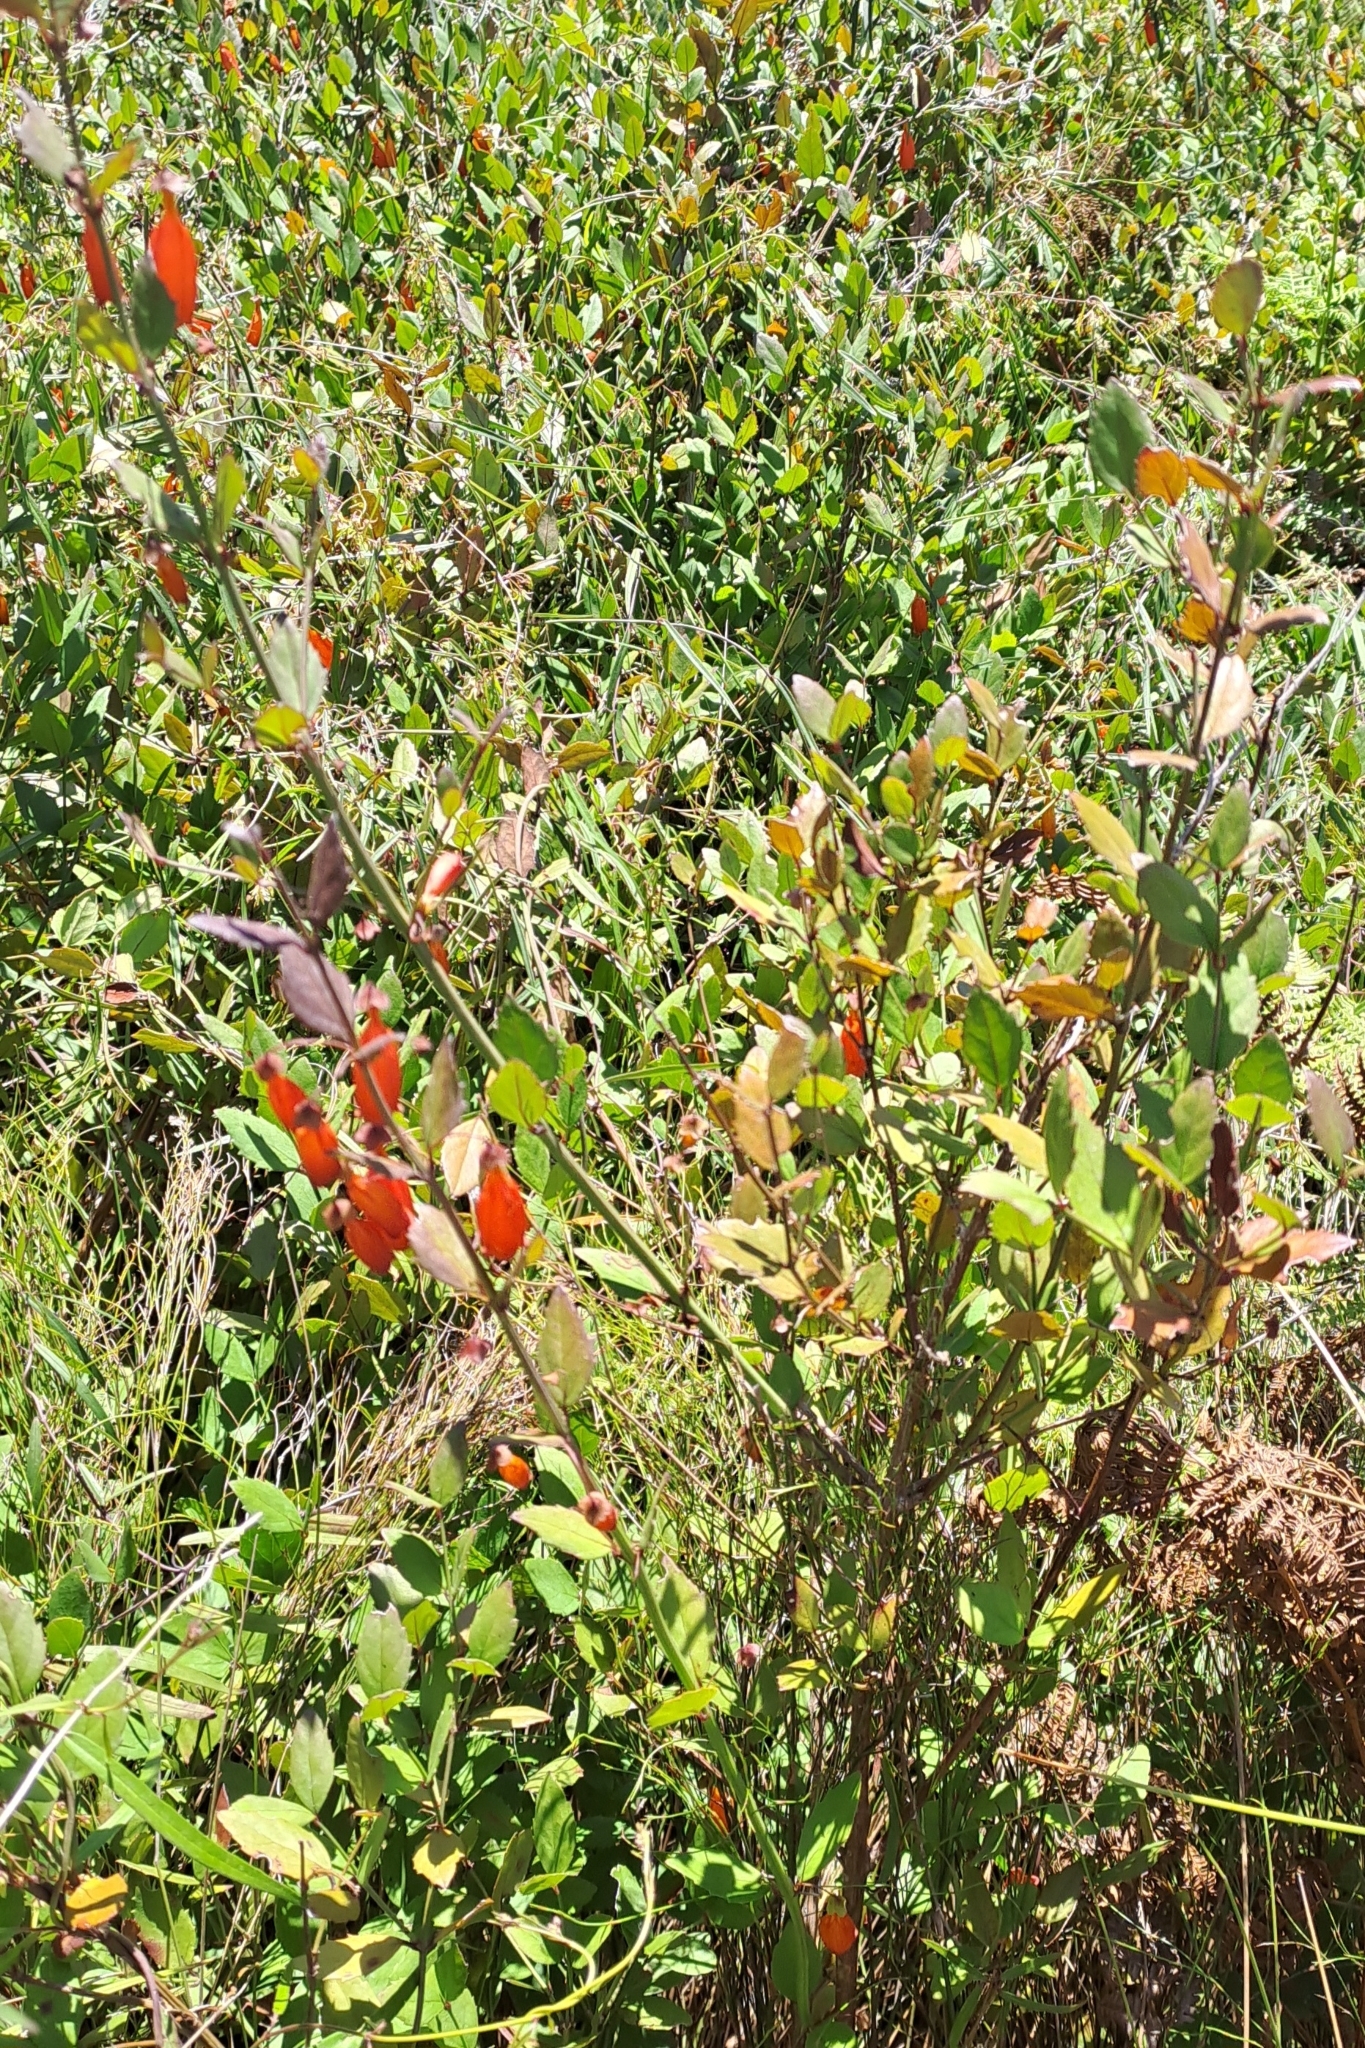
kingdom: Plantae
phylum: Tracheophyta
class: Magnoliopsida
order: Lamiales
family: Stilbaceae
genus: Halleria
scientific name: Halleria elliptica
